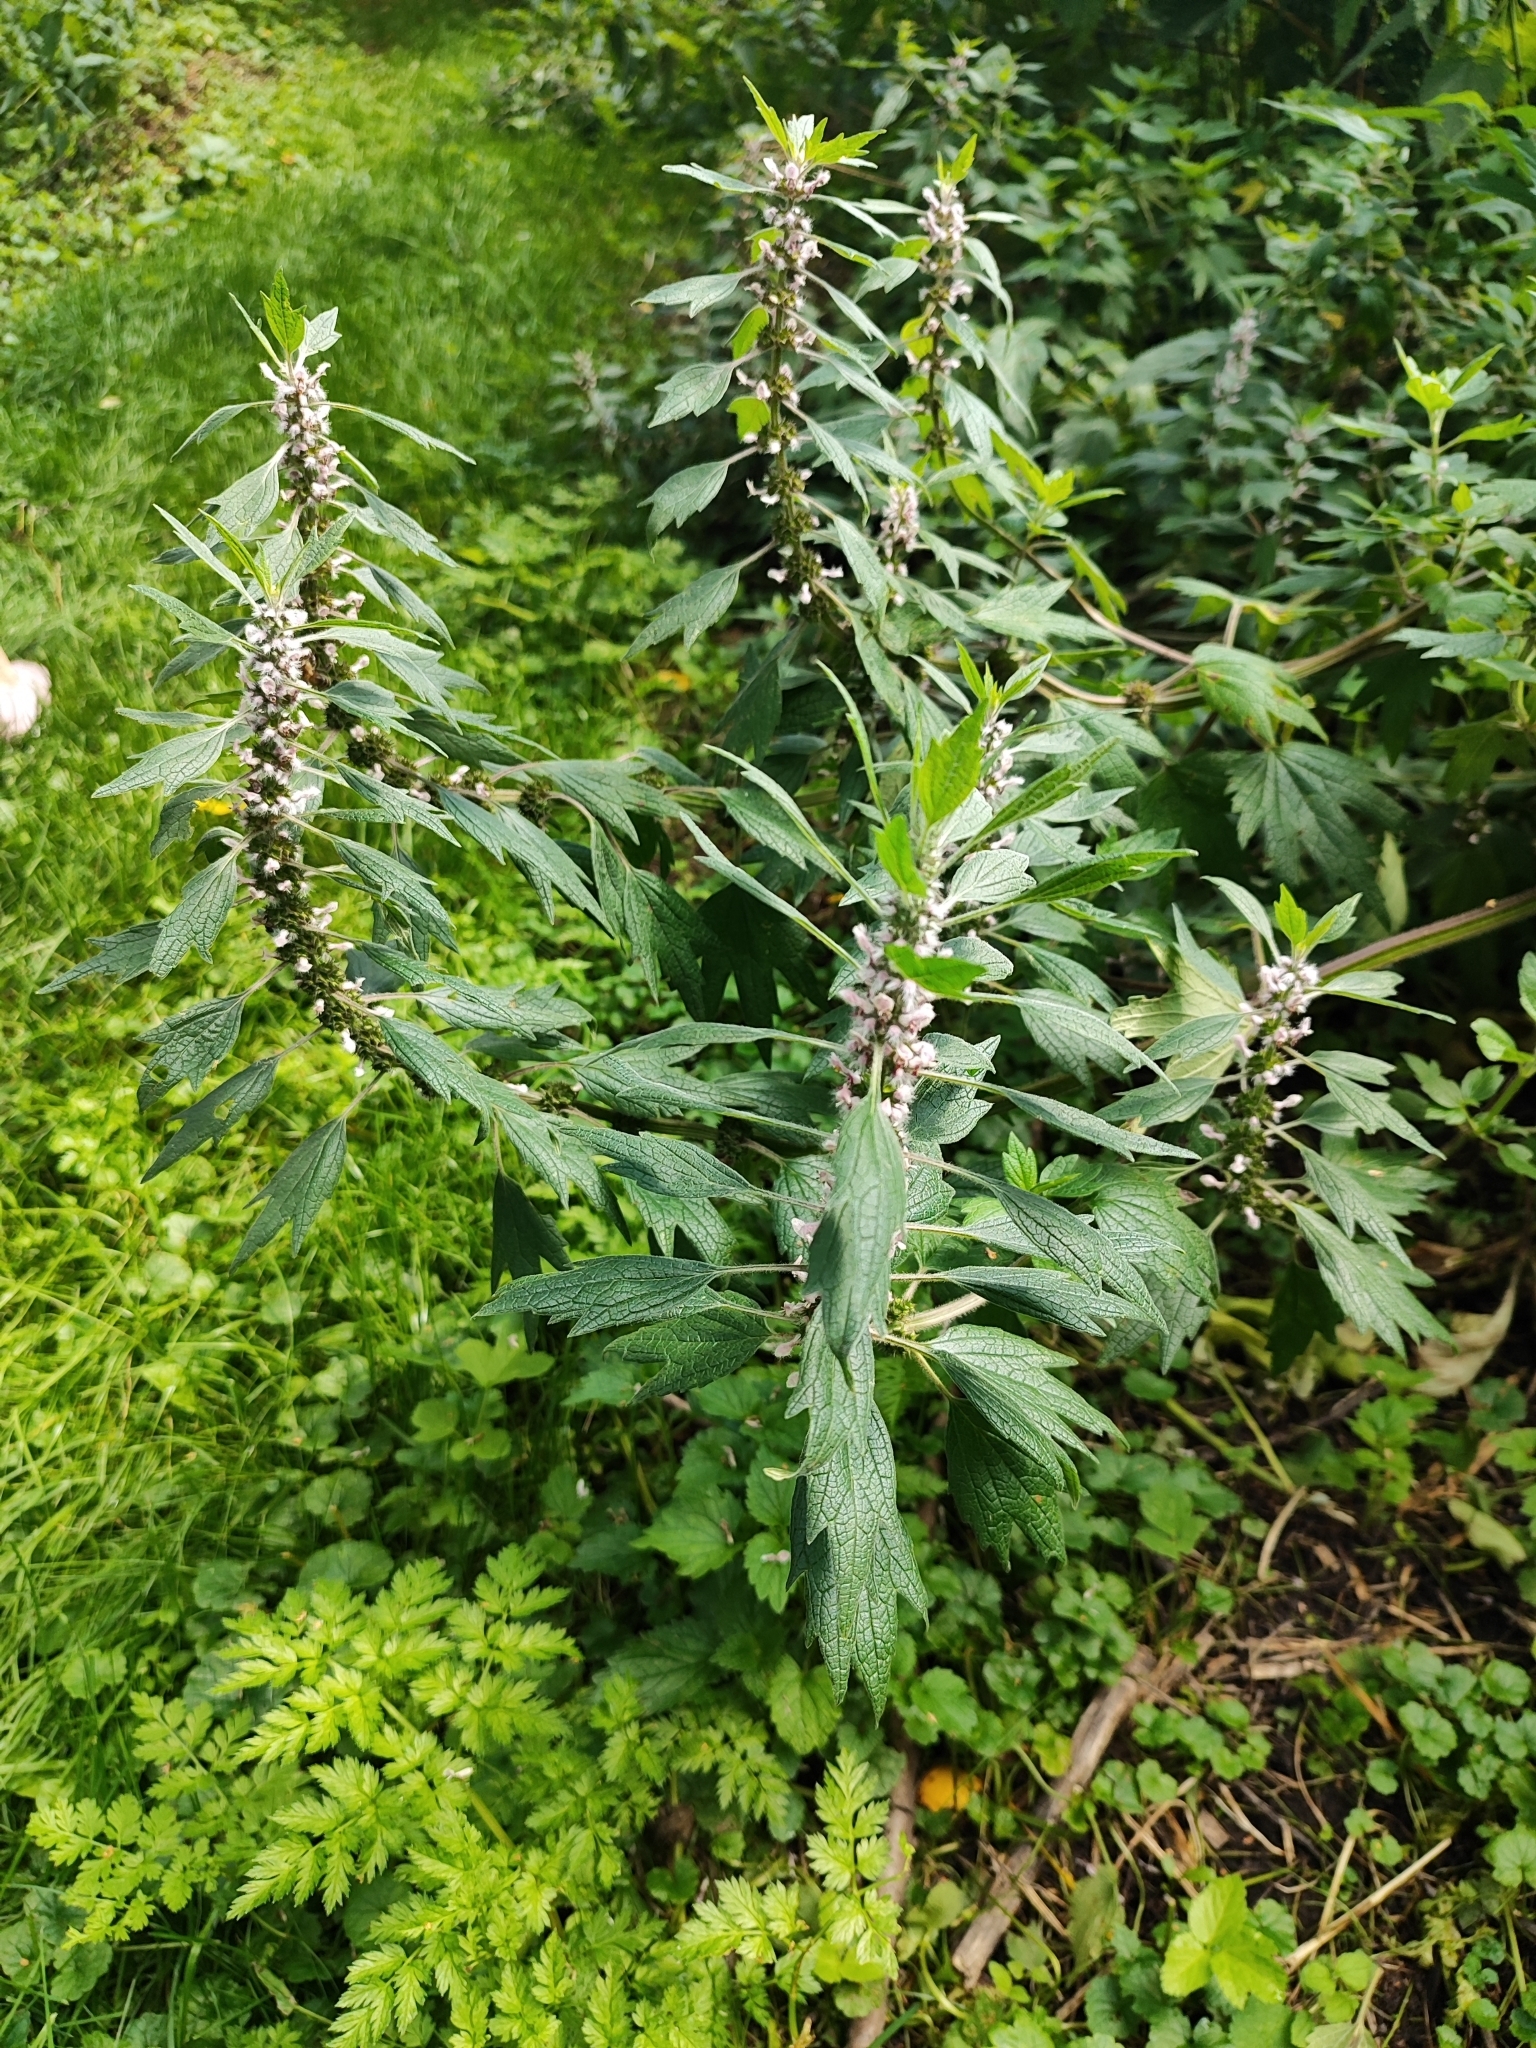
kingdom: Plantae
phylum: Tracheophyta
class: Magnoliopsida
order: Lamiales
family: Lamiaceae
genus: Leonurus
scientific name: Leonurus quinquelobatus
